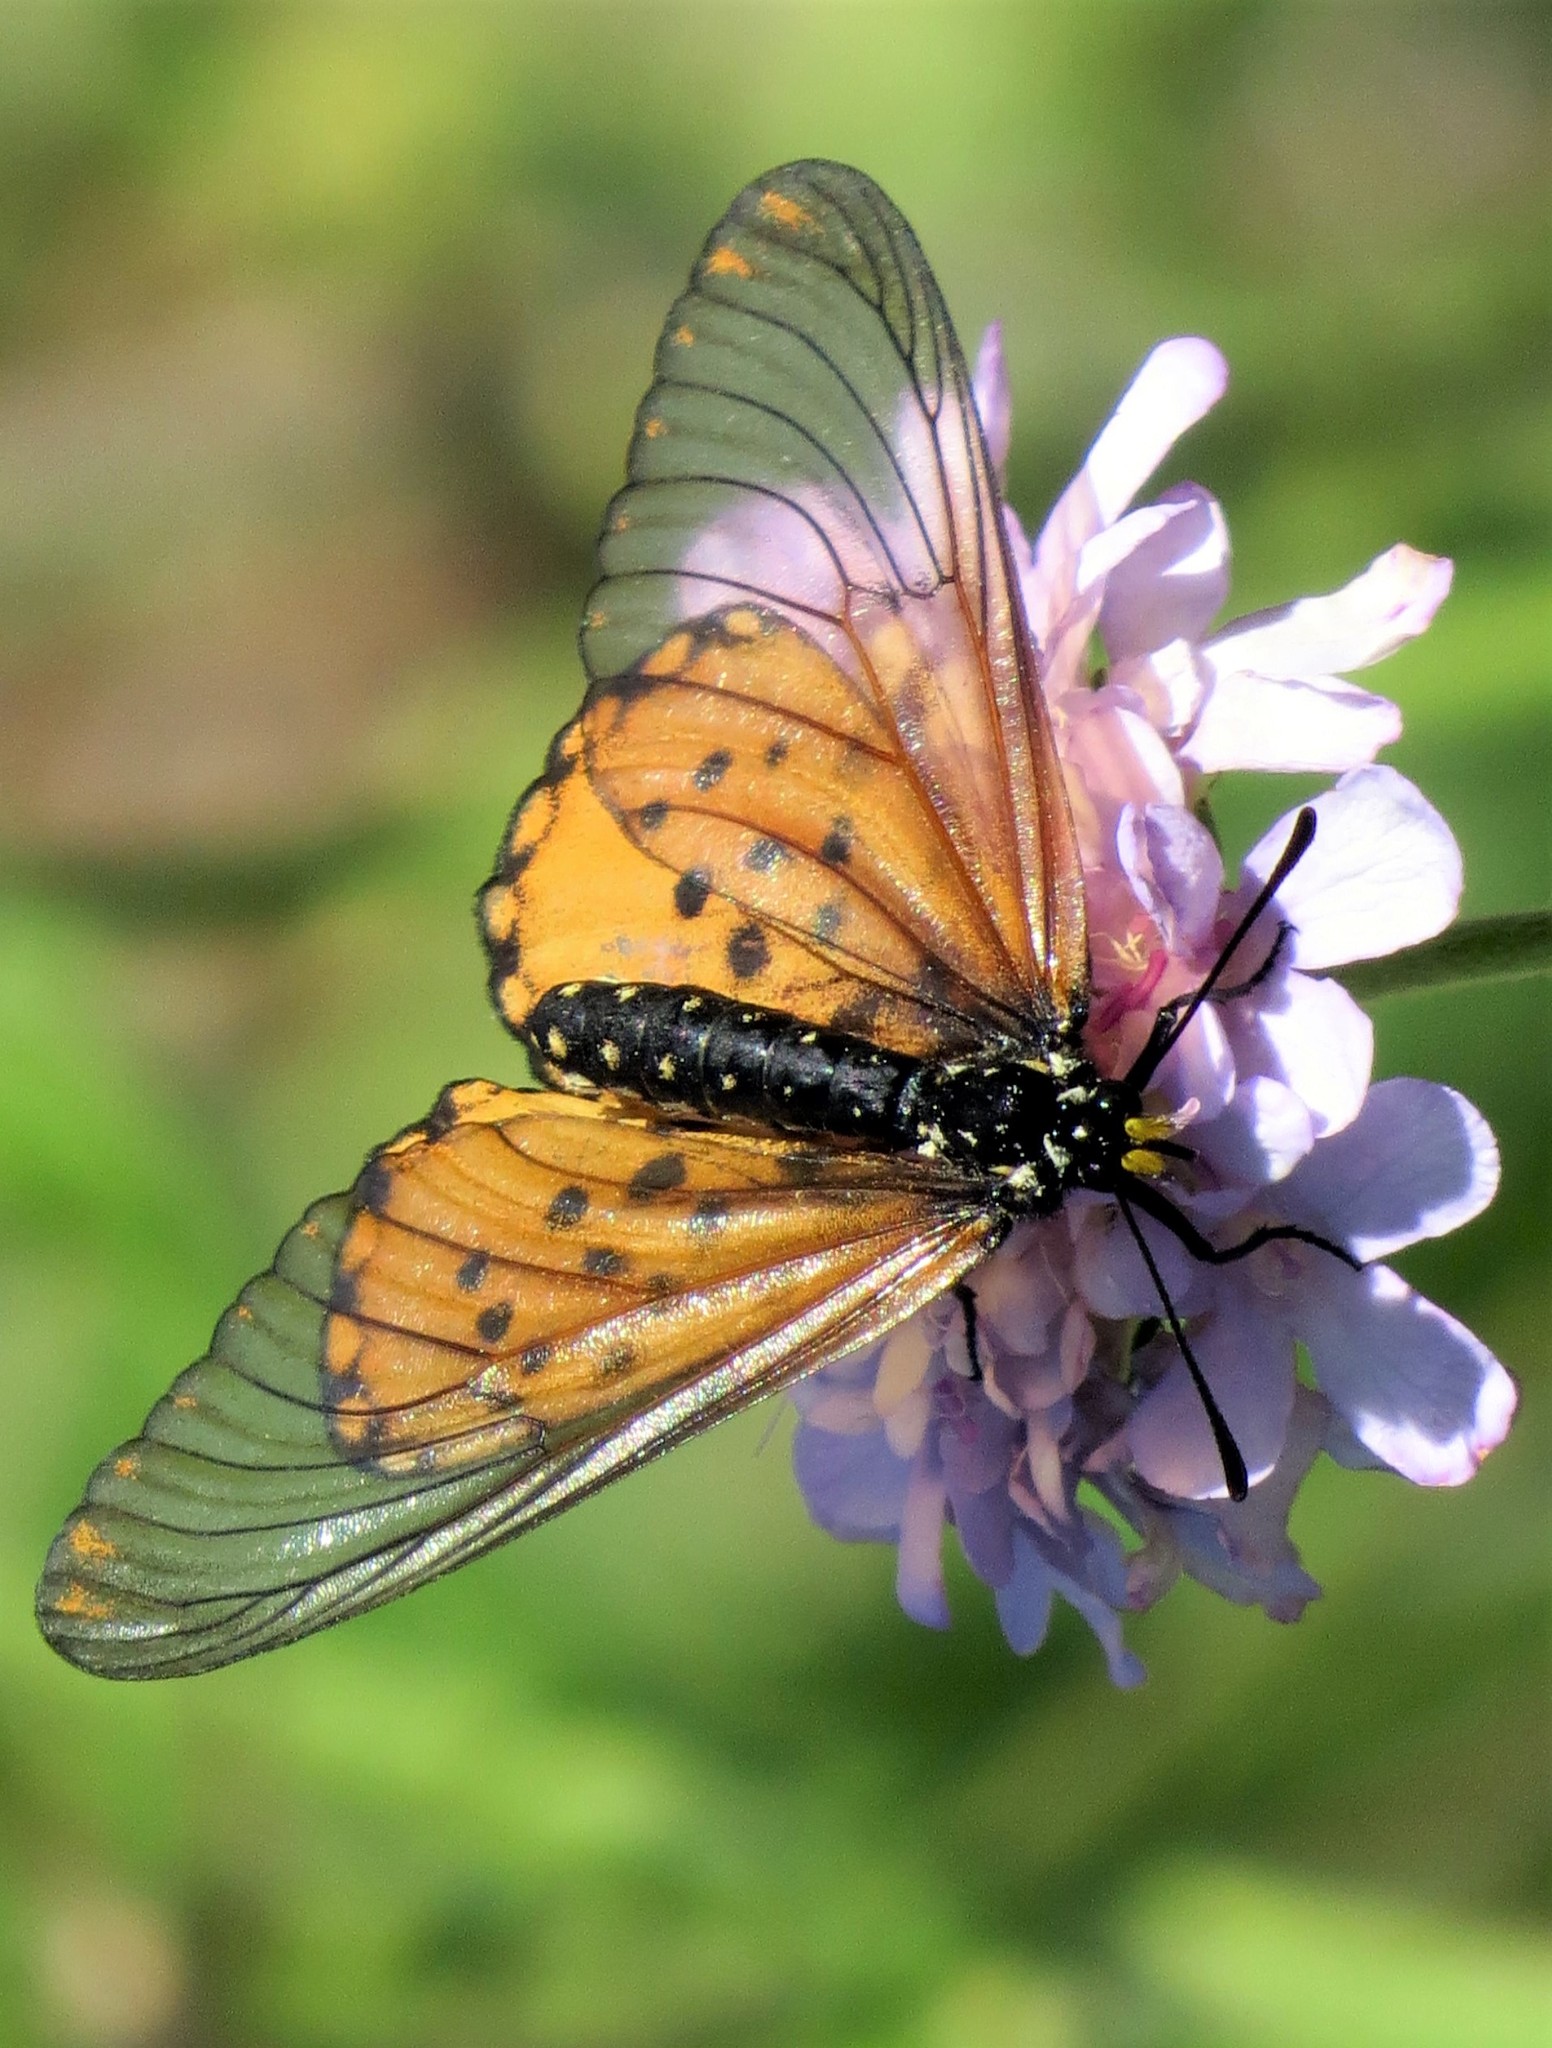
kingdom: Animalia
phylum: Arthropoda
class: Insecta
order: Lepidoptera
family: Nymphalidae
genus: Acraea
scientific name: Acraea horta
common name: Garden acraea
